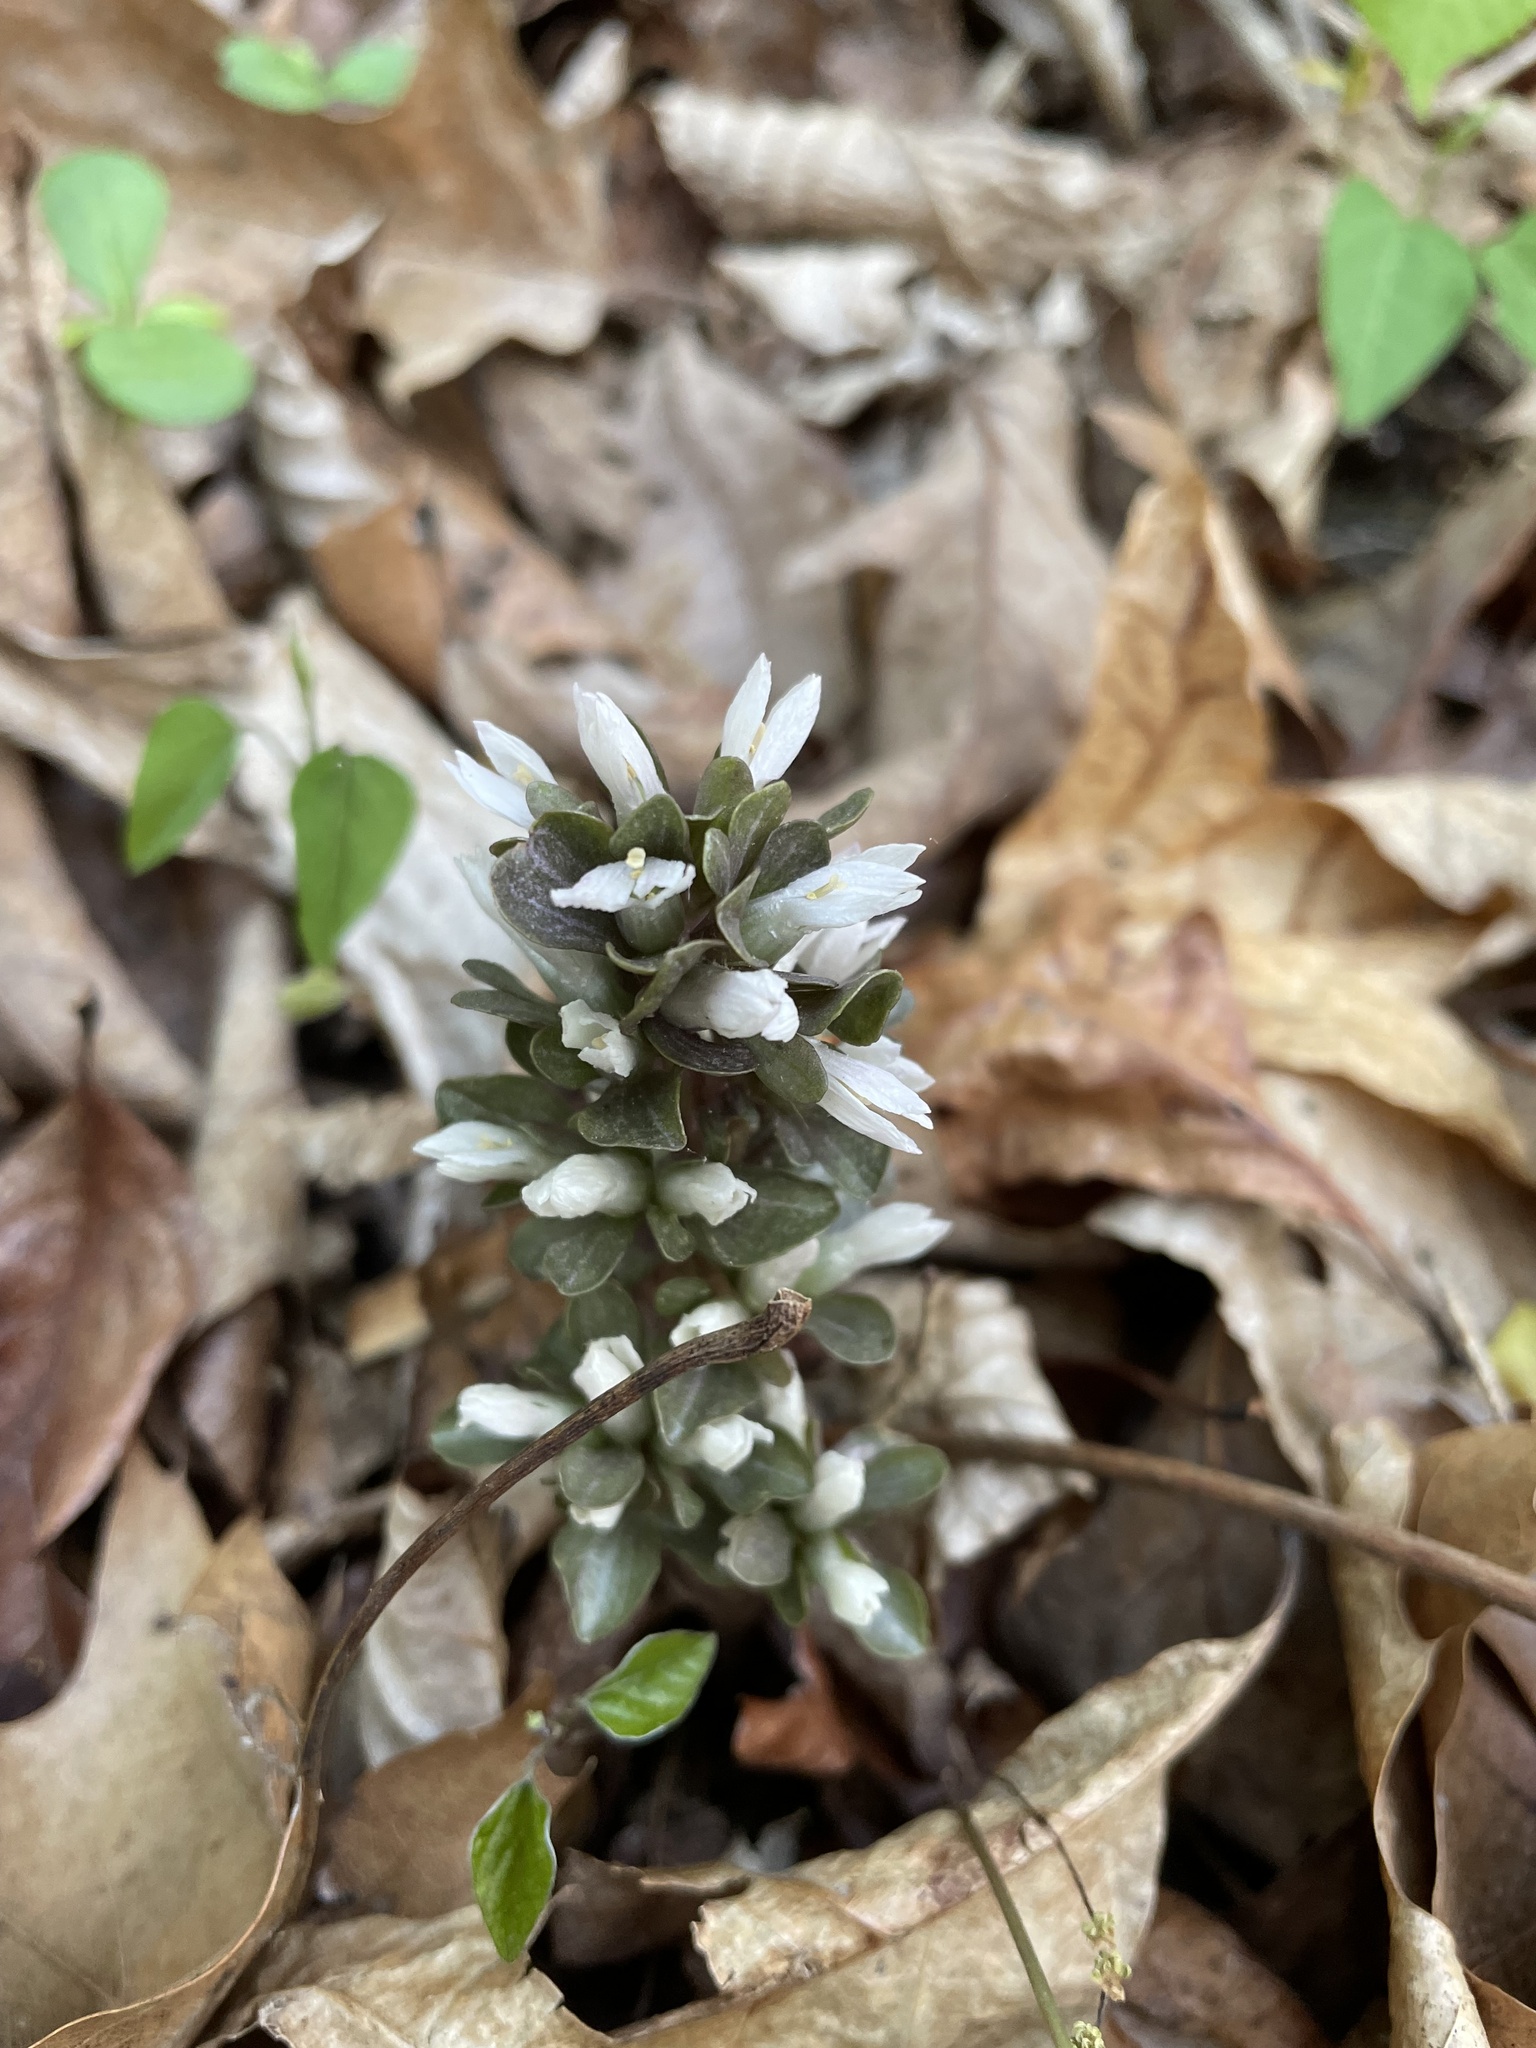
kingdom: Plantae
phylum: Tracheophyta
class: Magnoliopsida
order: Gentianales
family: Gentianaceae
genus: Obolaria
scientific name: Obolaria virginica
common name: Pennywort
